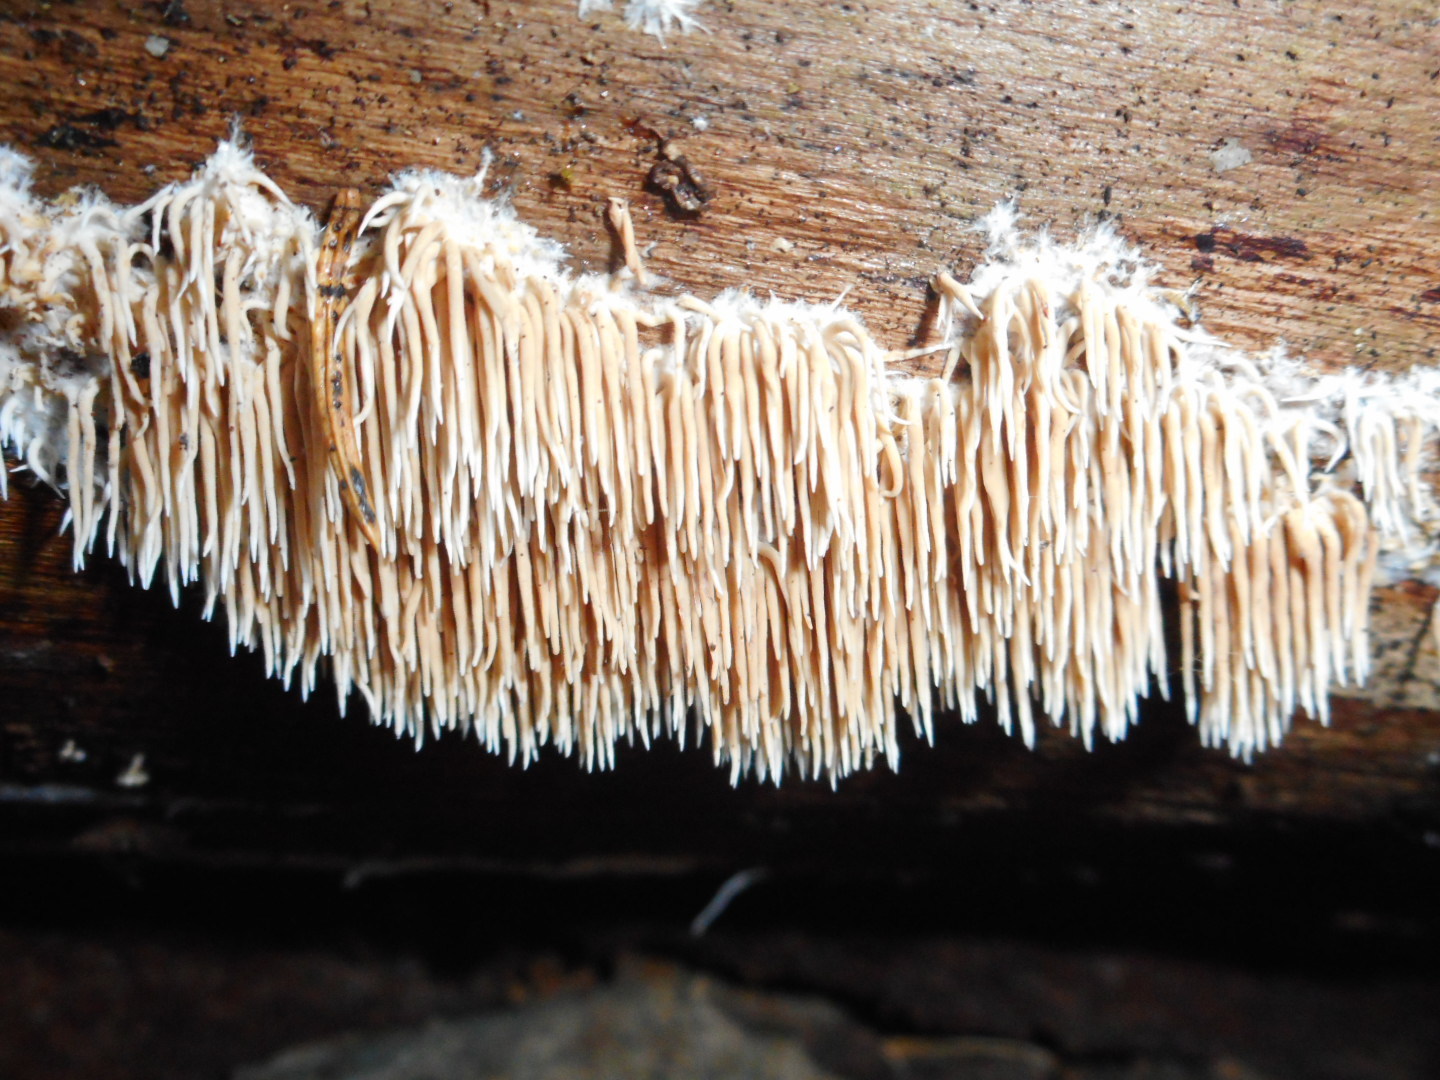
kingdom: Fungi
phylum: Basidiomycota
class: Agaricomycetes
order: Gomphales
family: Lentariaceae
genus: Hydnocristella
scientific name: Hydnocristella himantia
